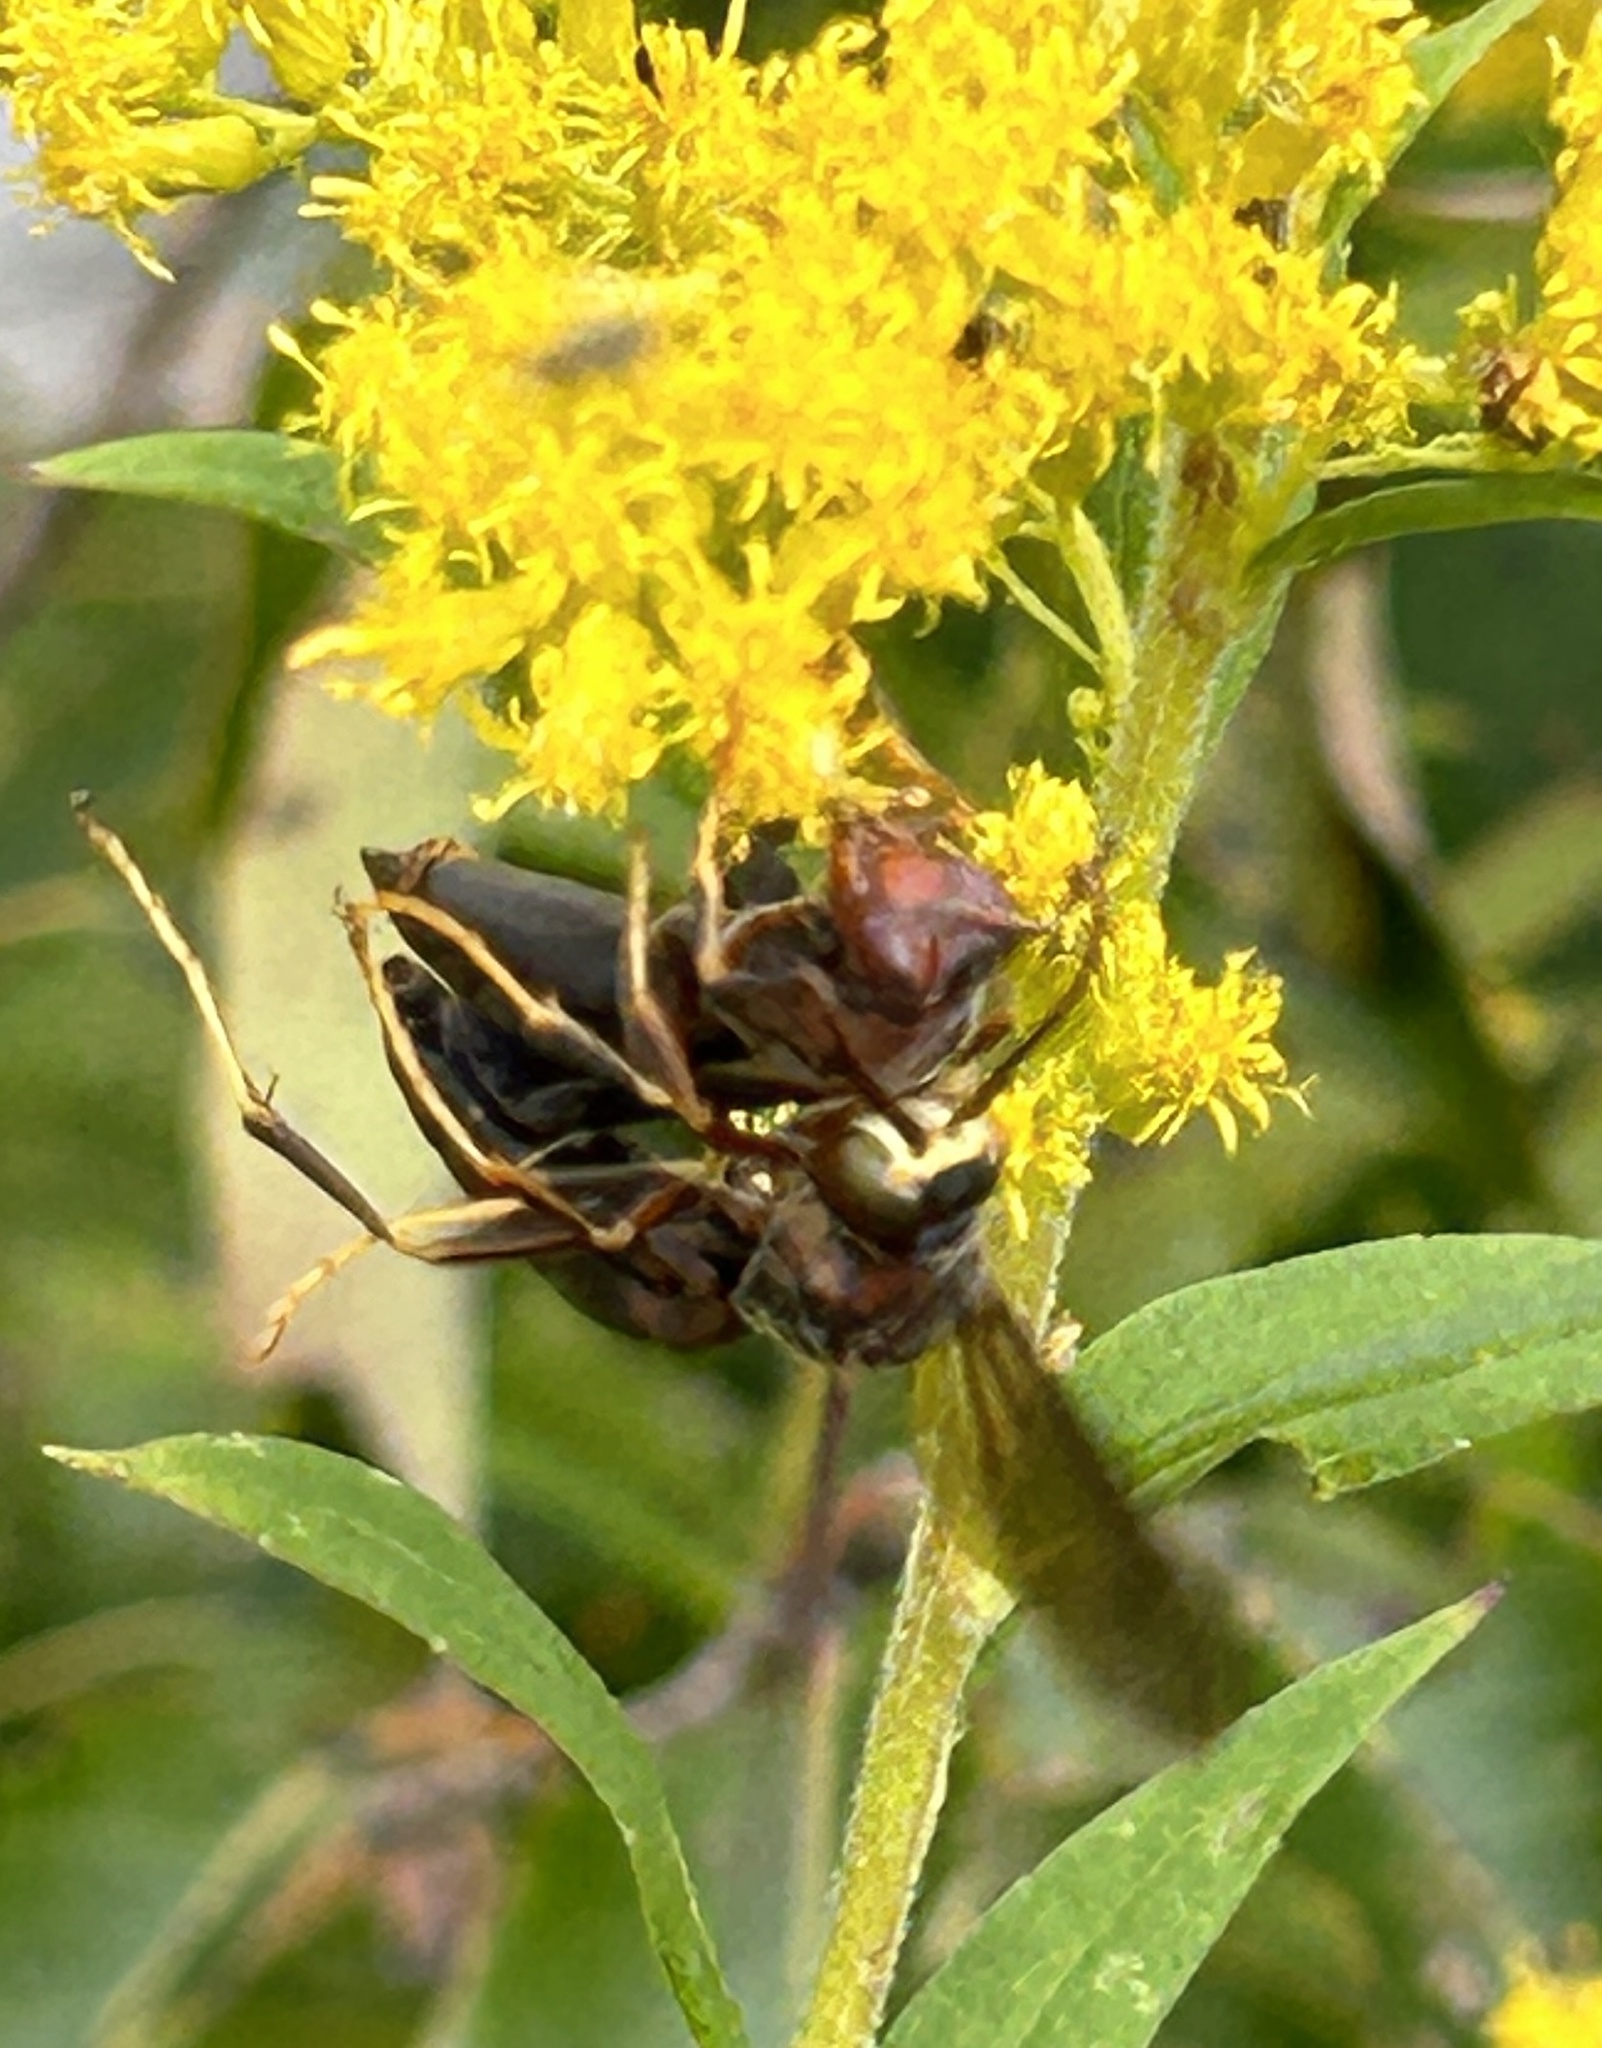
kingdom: Animalia
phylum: Arthropoda
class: Insecta
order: Hymenoptera
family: Eumenidae
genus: Polistes
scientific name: Polistes metricus
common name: Metric paper wasp
